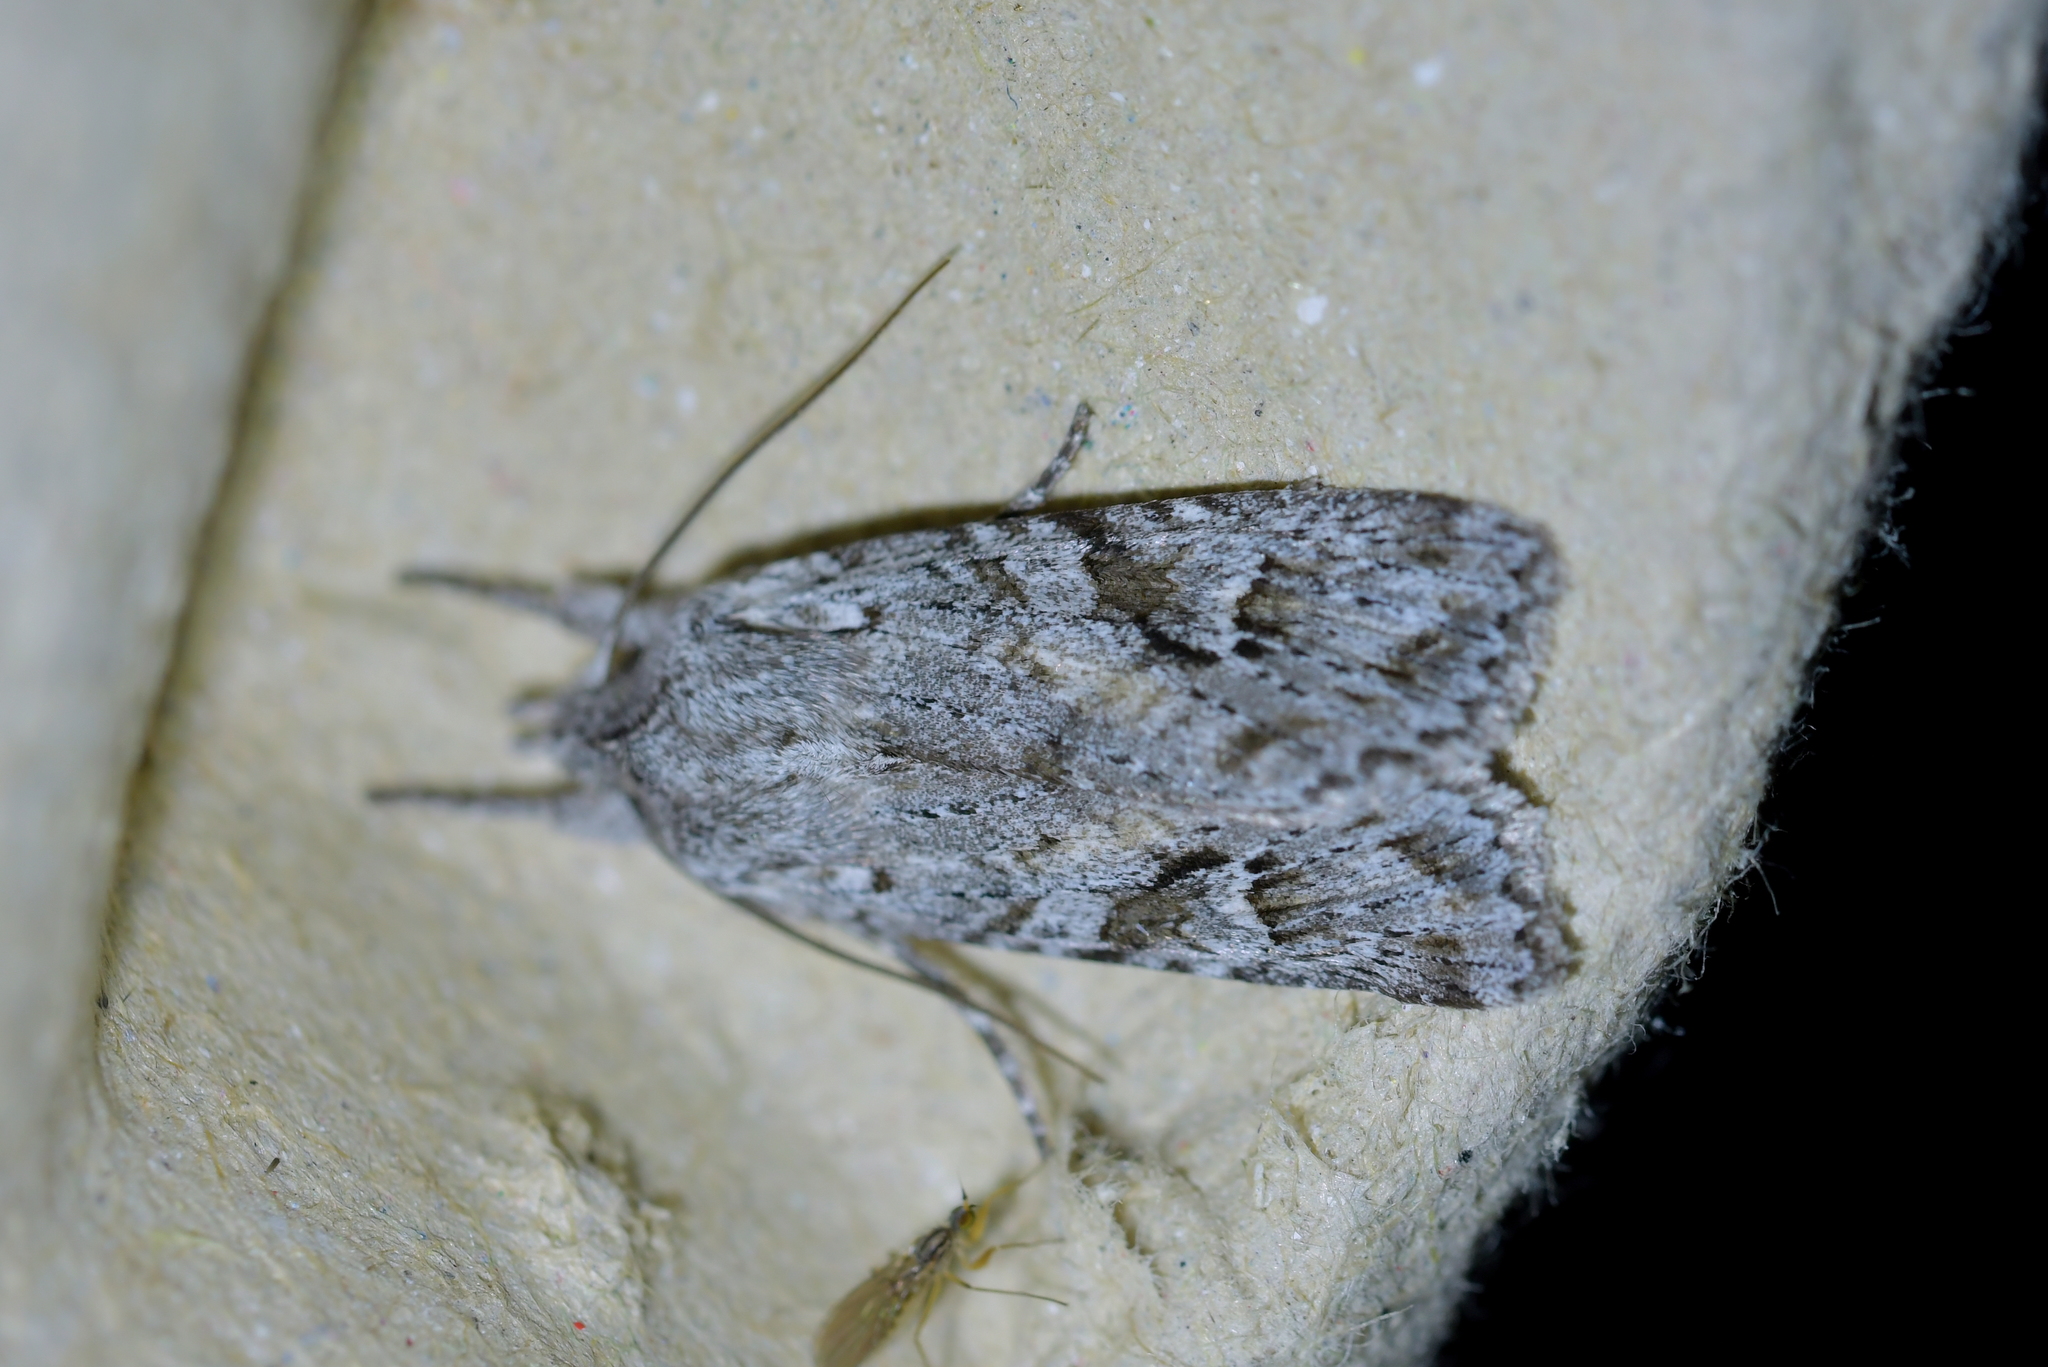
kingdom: Animalia
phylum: Arthropoda
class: Insecta
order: Lepidoptera
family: Noctuidae
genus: Physetica
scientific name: Physetica longstaffii
